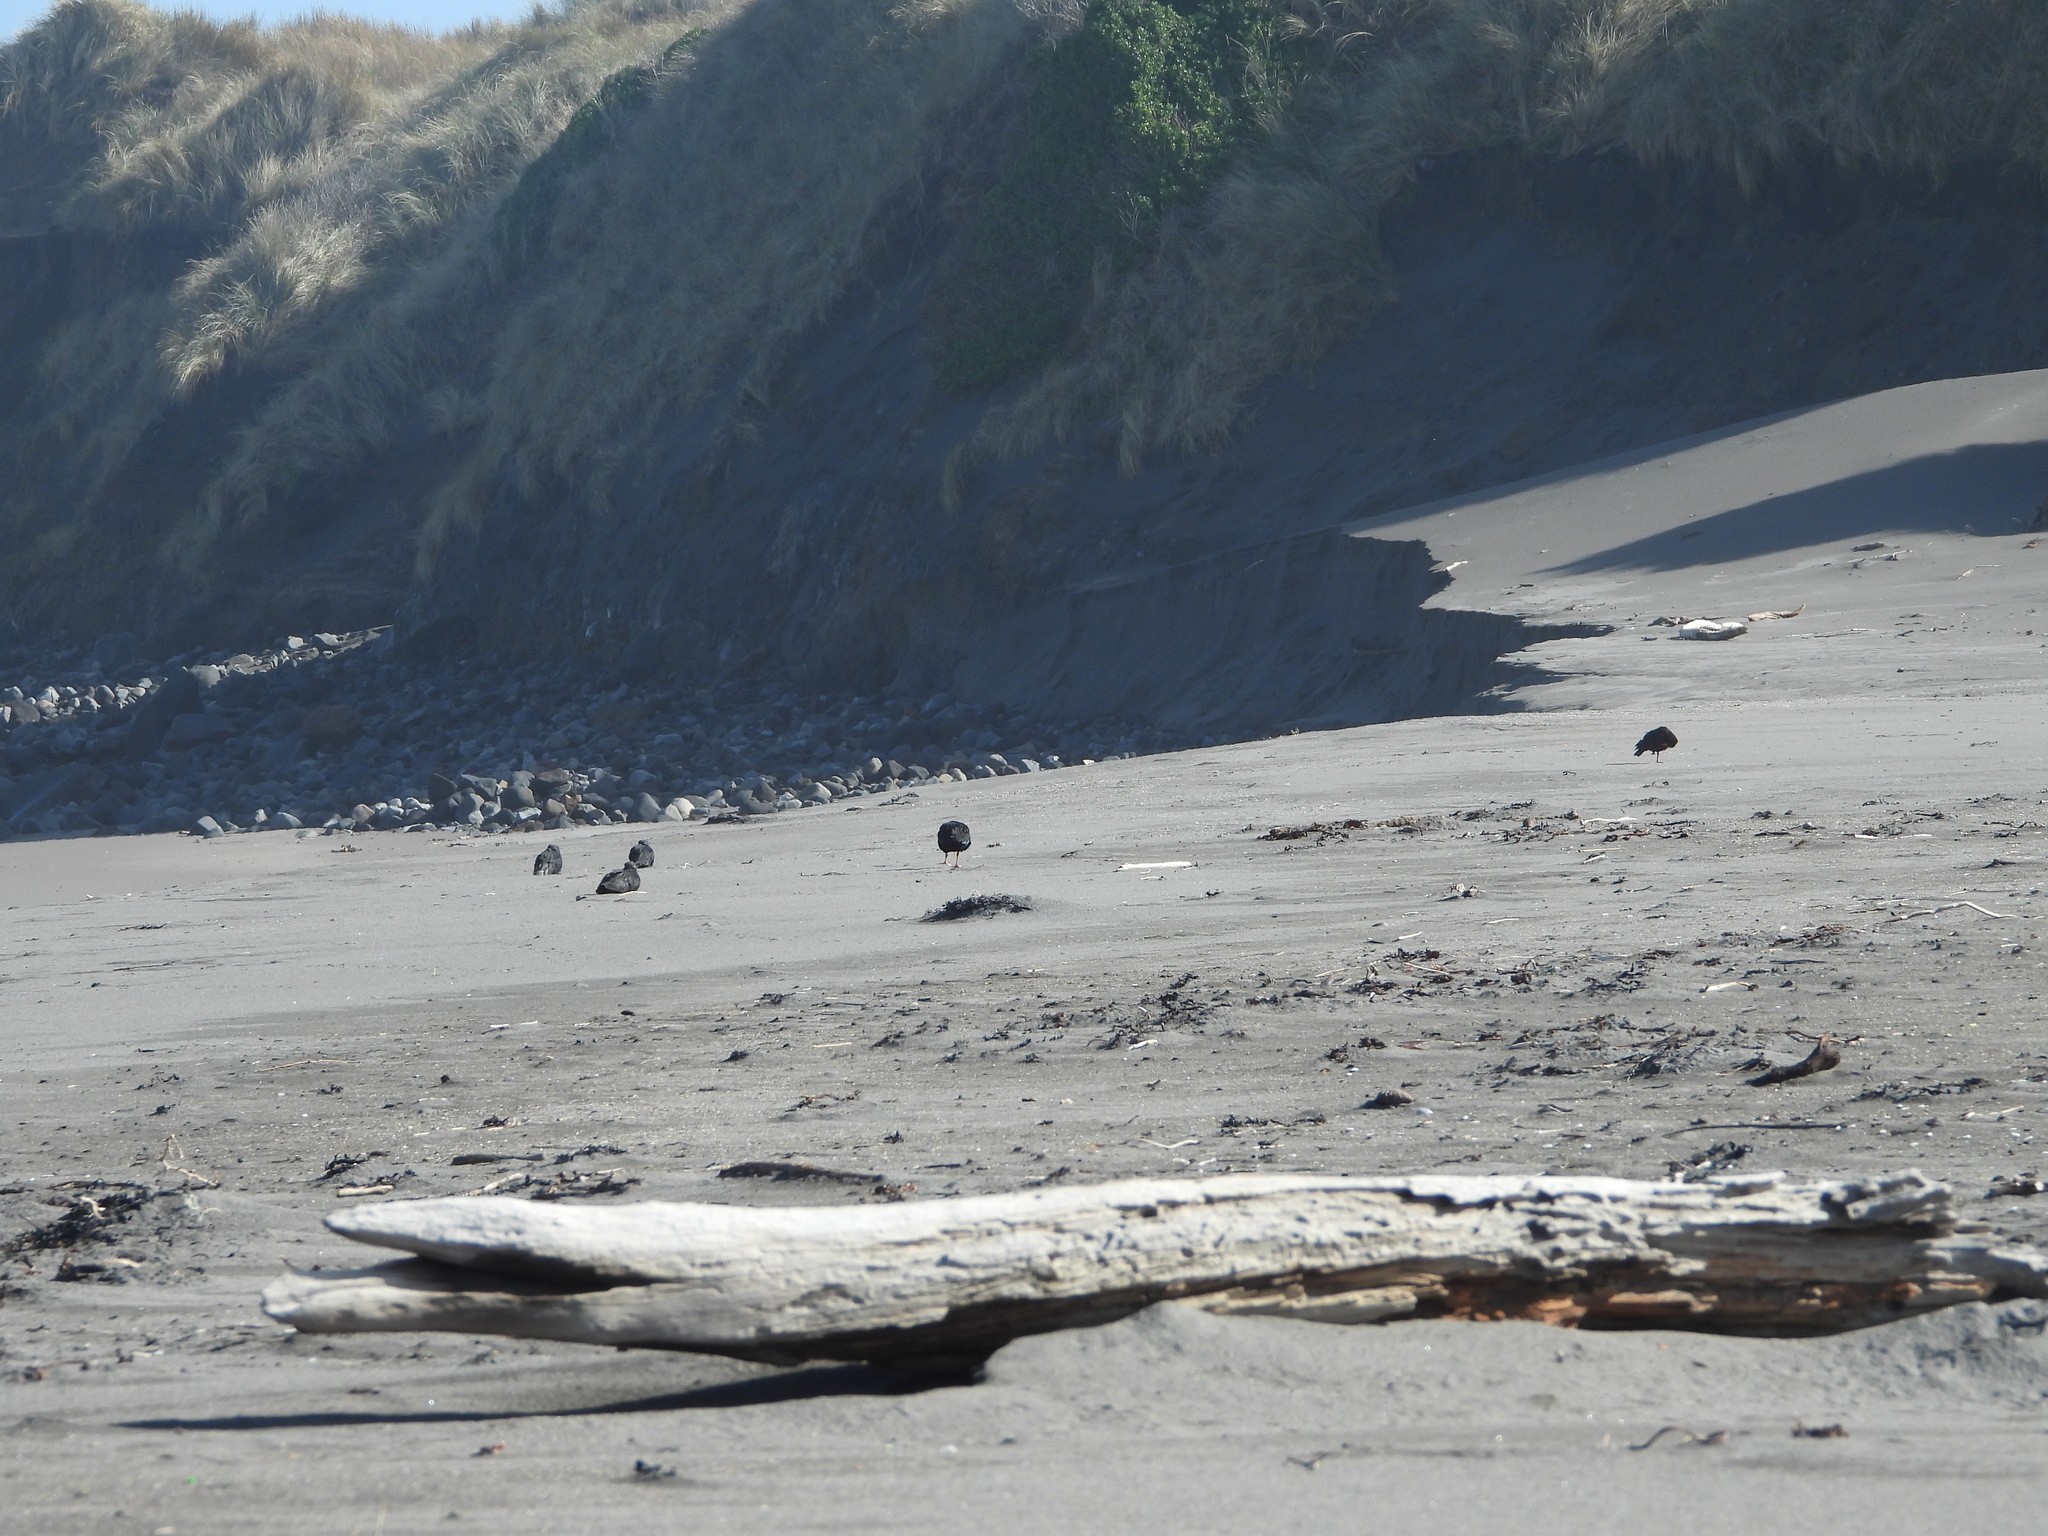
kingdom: Animalia
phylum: Chordata
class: Aves
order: Charadriiformes
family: Haematopodidae
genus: Haematopus
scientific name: Haematopus unicolor
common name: Variable oystercatcher
